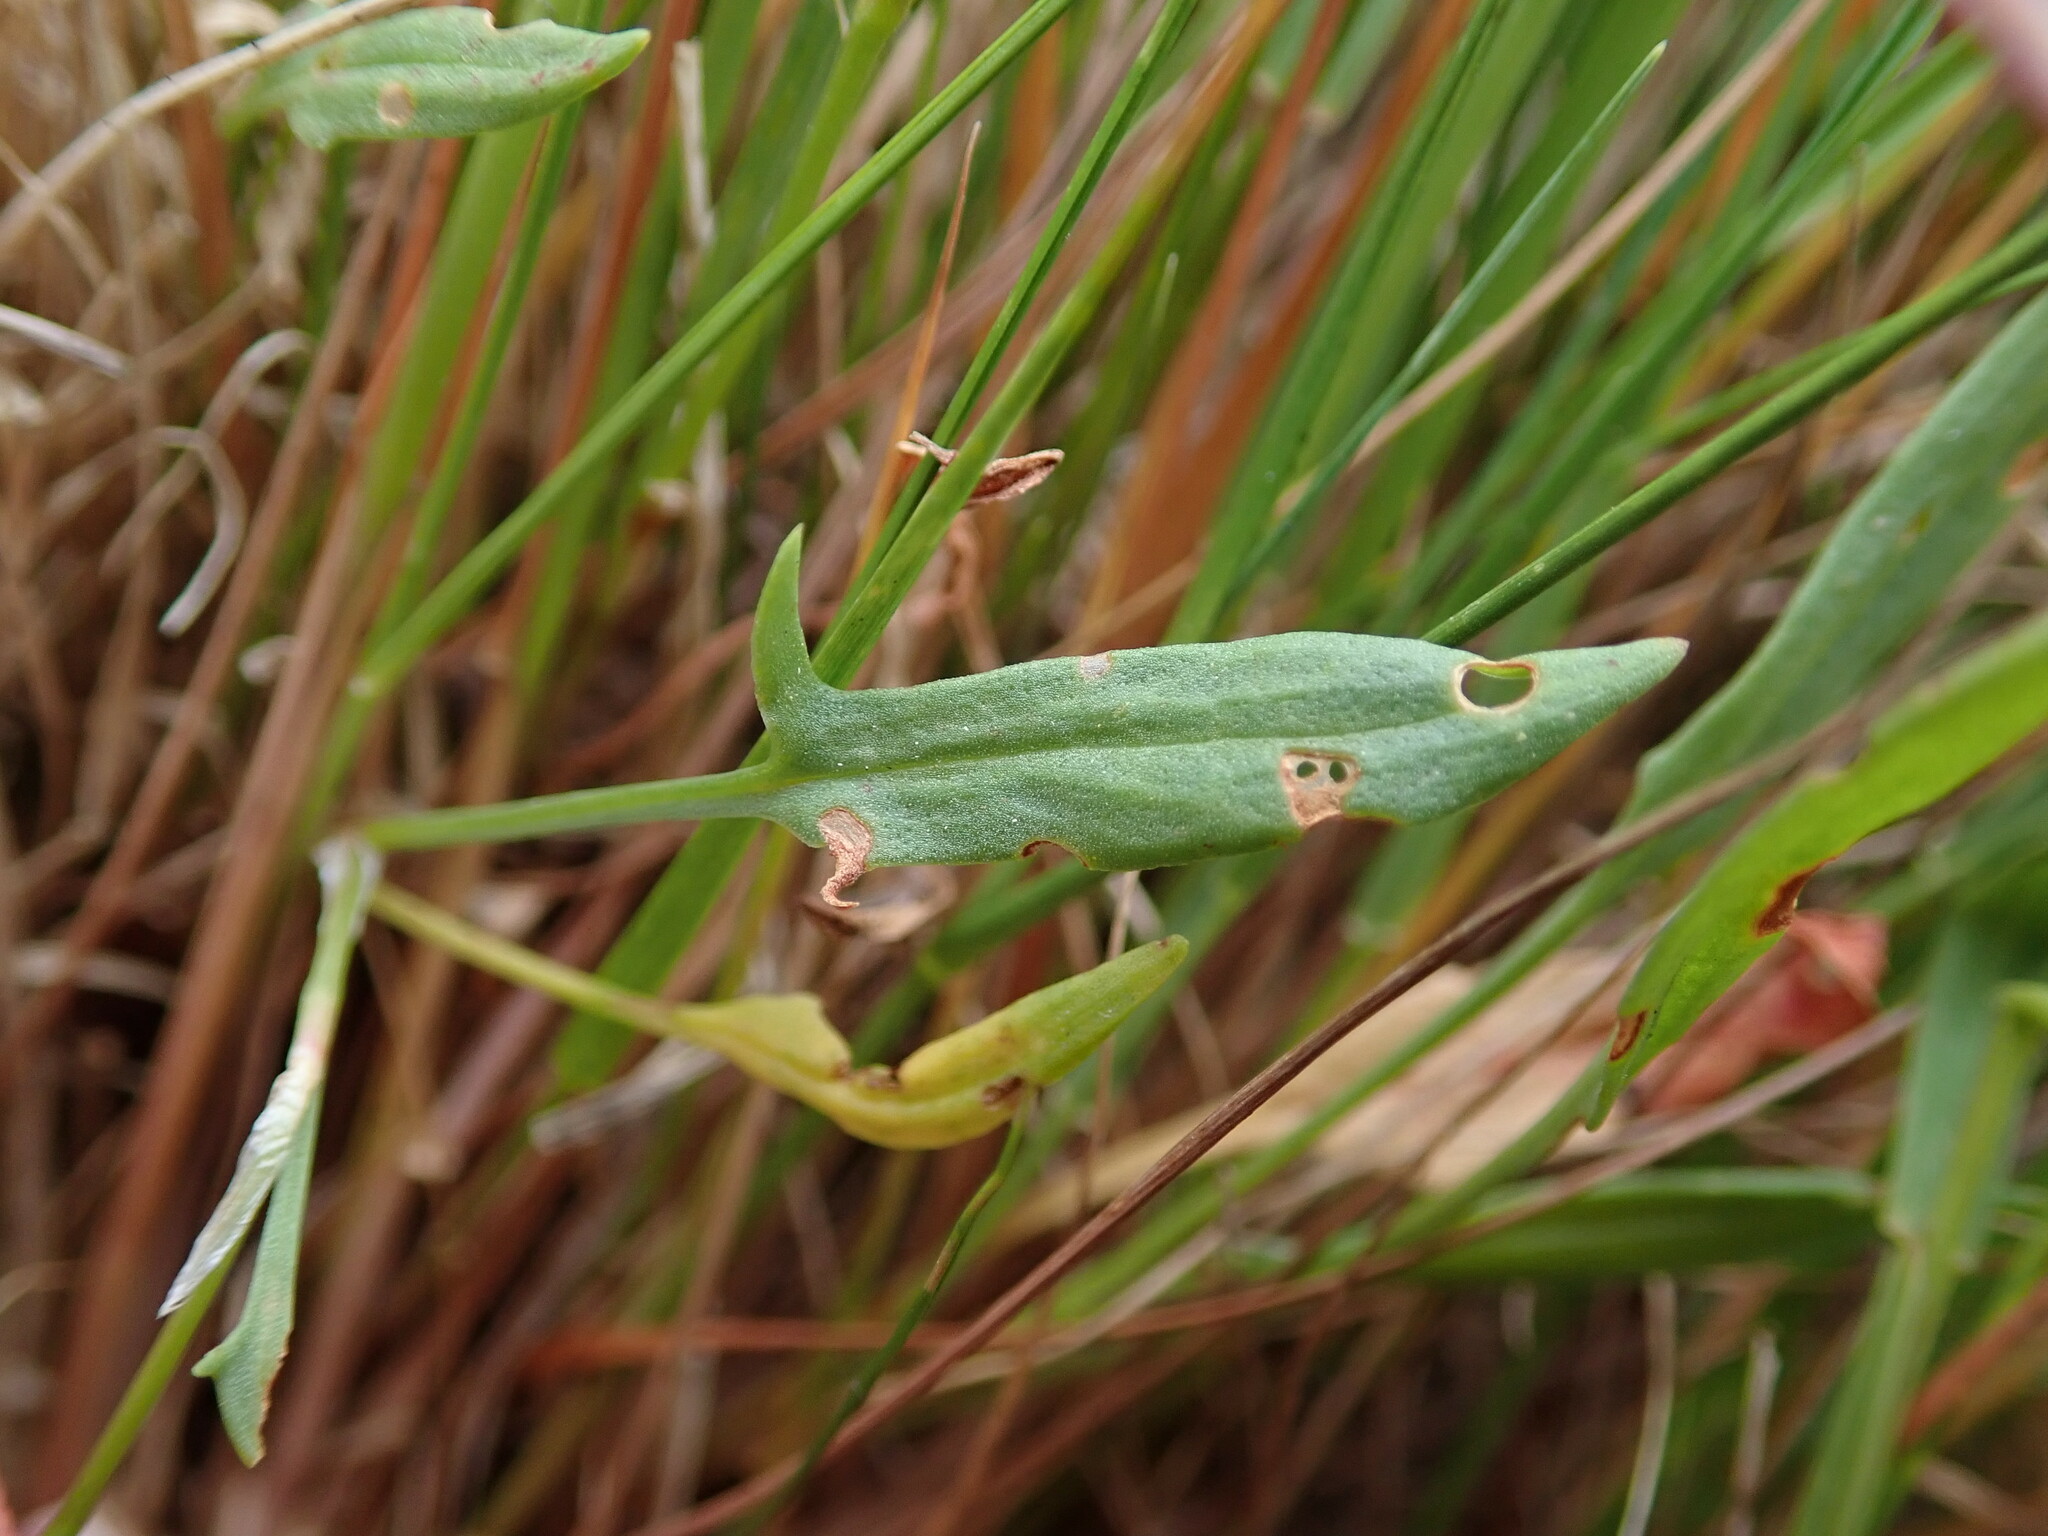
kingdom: Plantae
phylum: Tracheophyta
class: Magnoliopsida
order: Caryophyllales
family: Polygonaceae
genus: Rumex
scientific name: Rumex acetosella
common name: Common sheep sorrel
